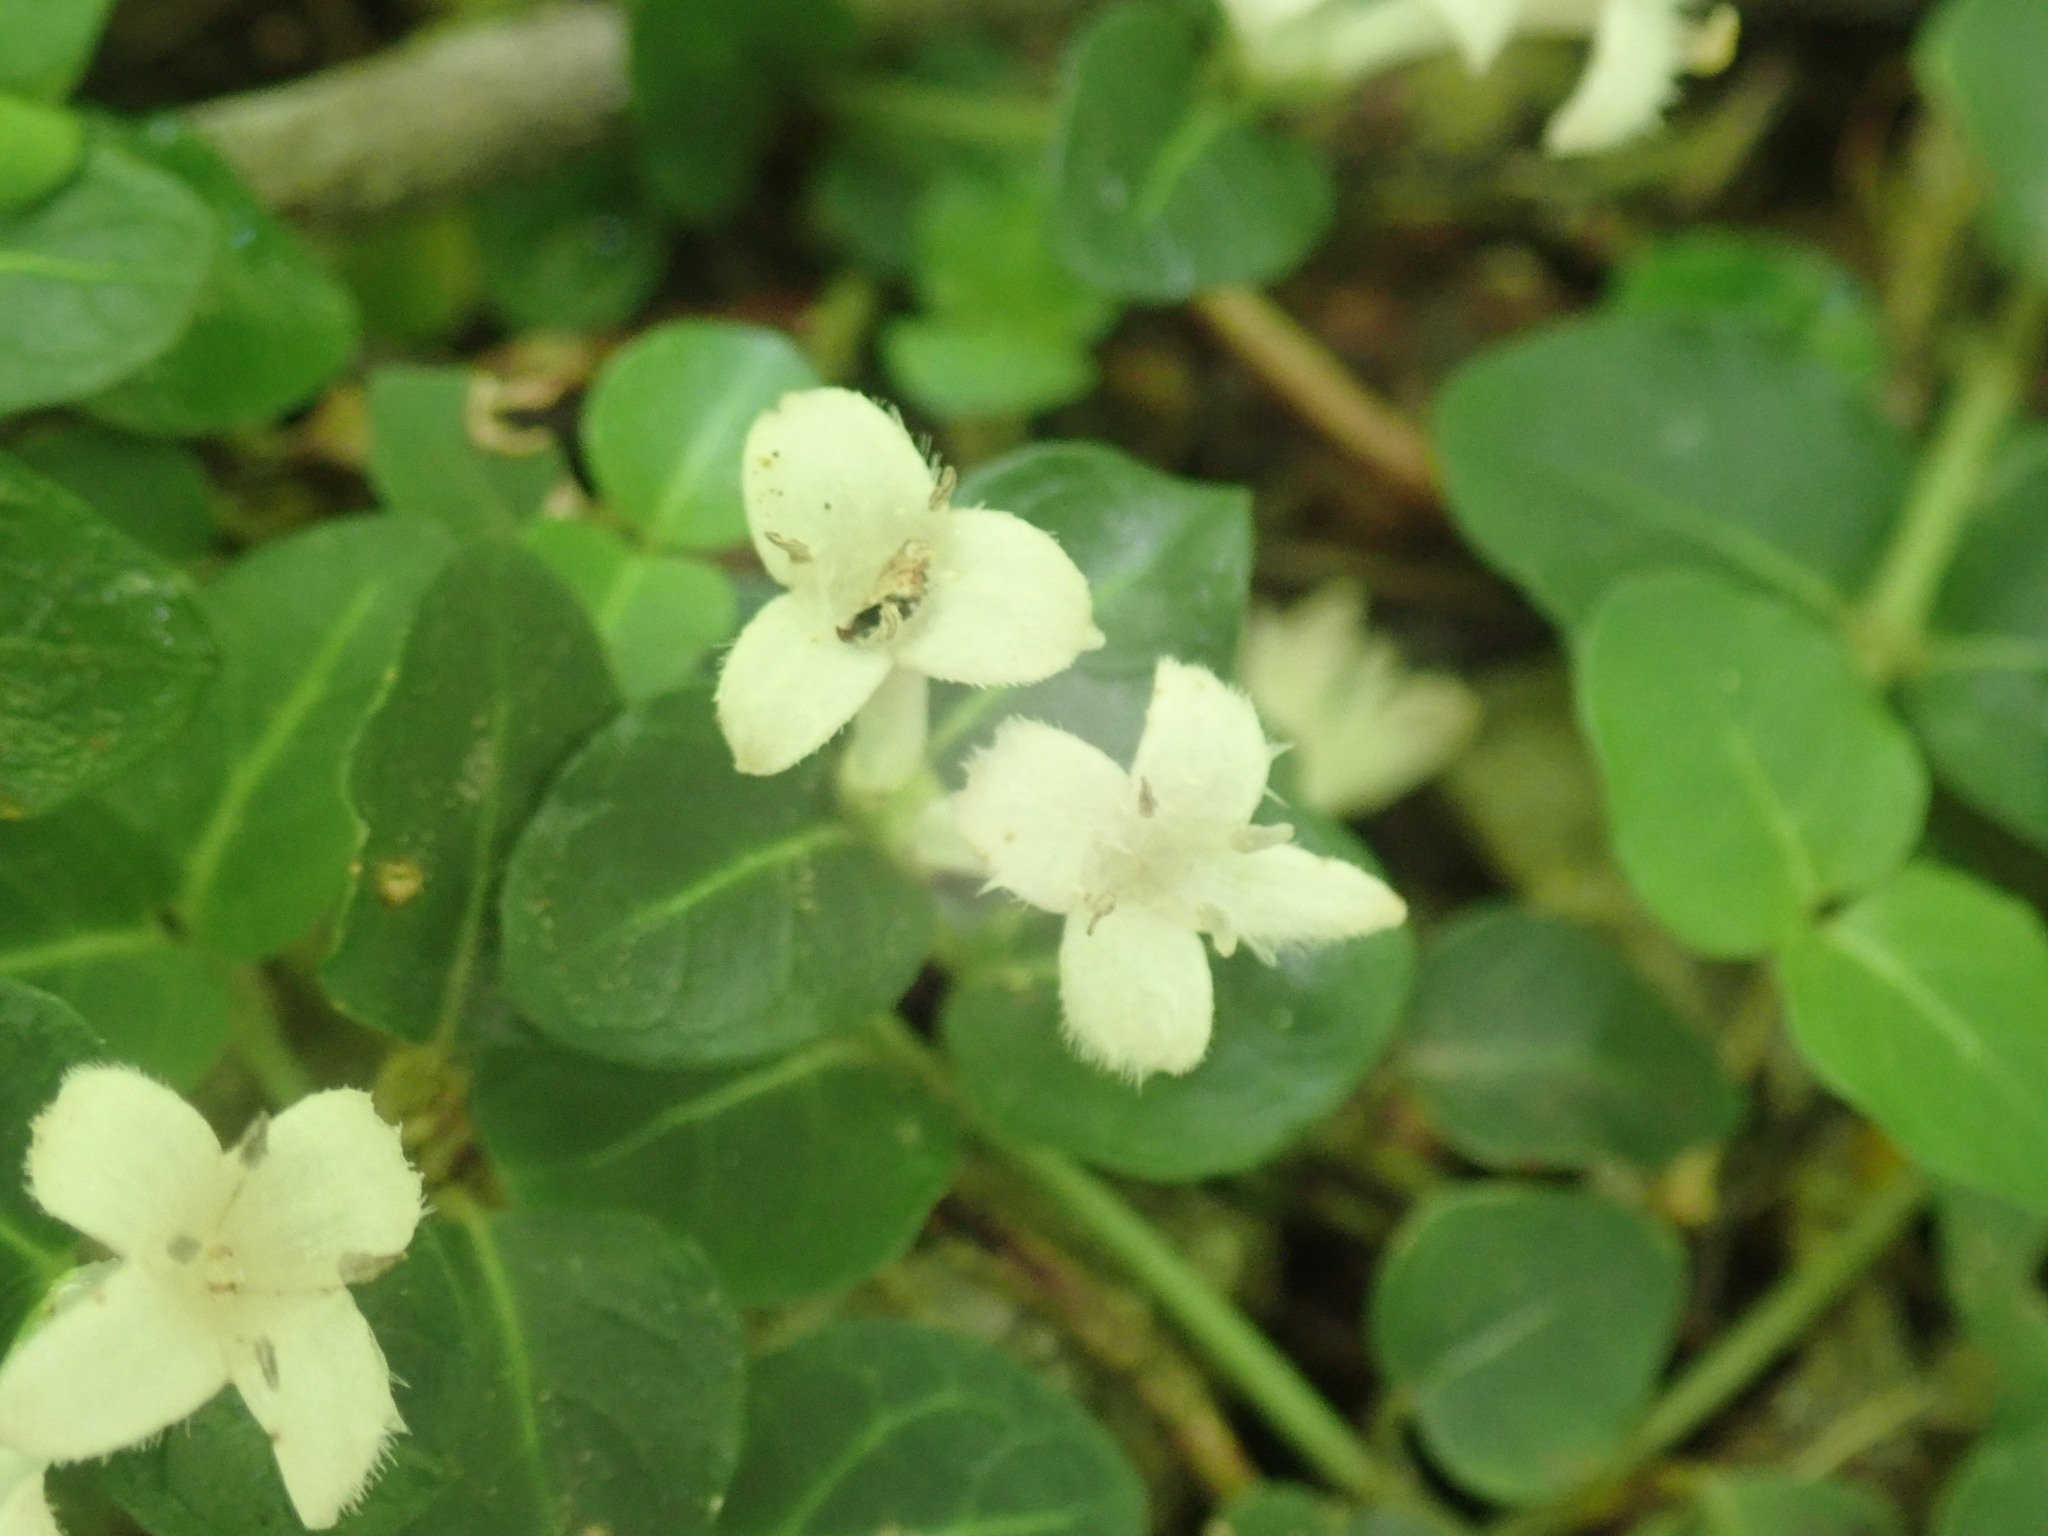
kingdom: Plantae
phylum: Tracheophyta
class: Magnoliopsida
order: Gentianales
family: Rubiaceae
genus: Mitchella
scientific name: Mitchella repens
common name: Partridge-berry
